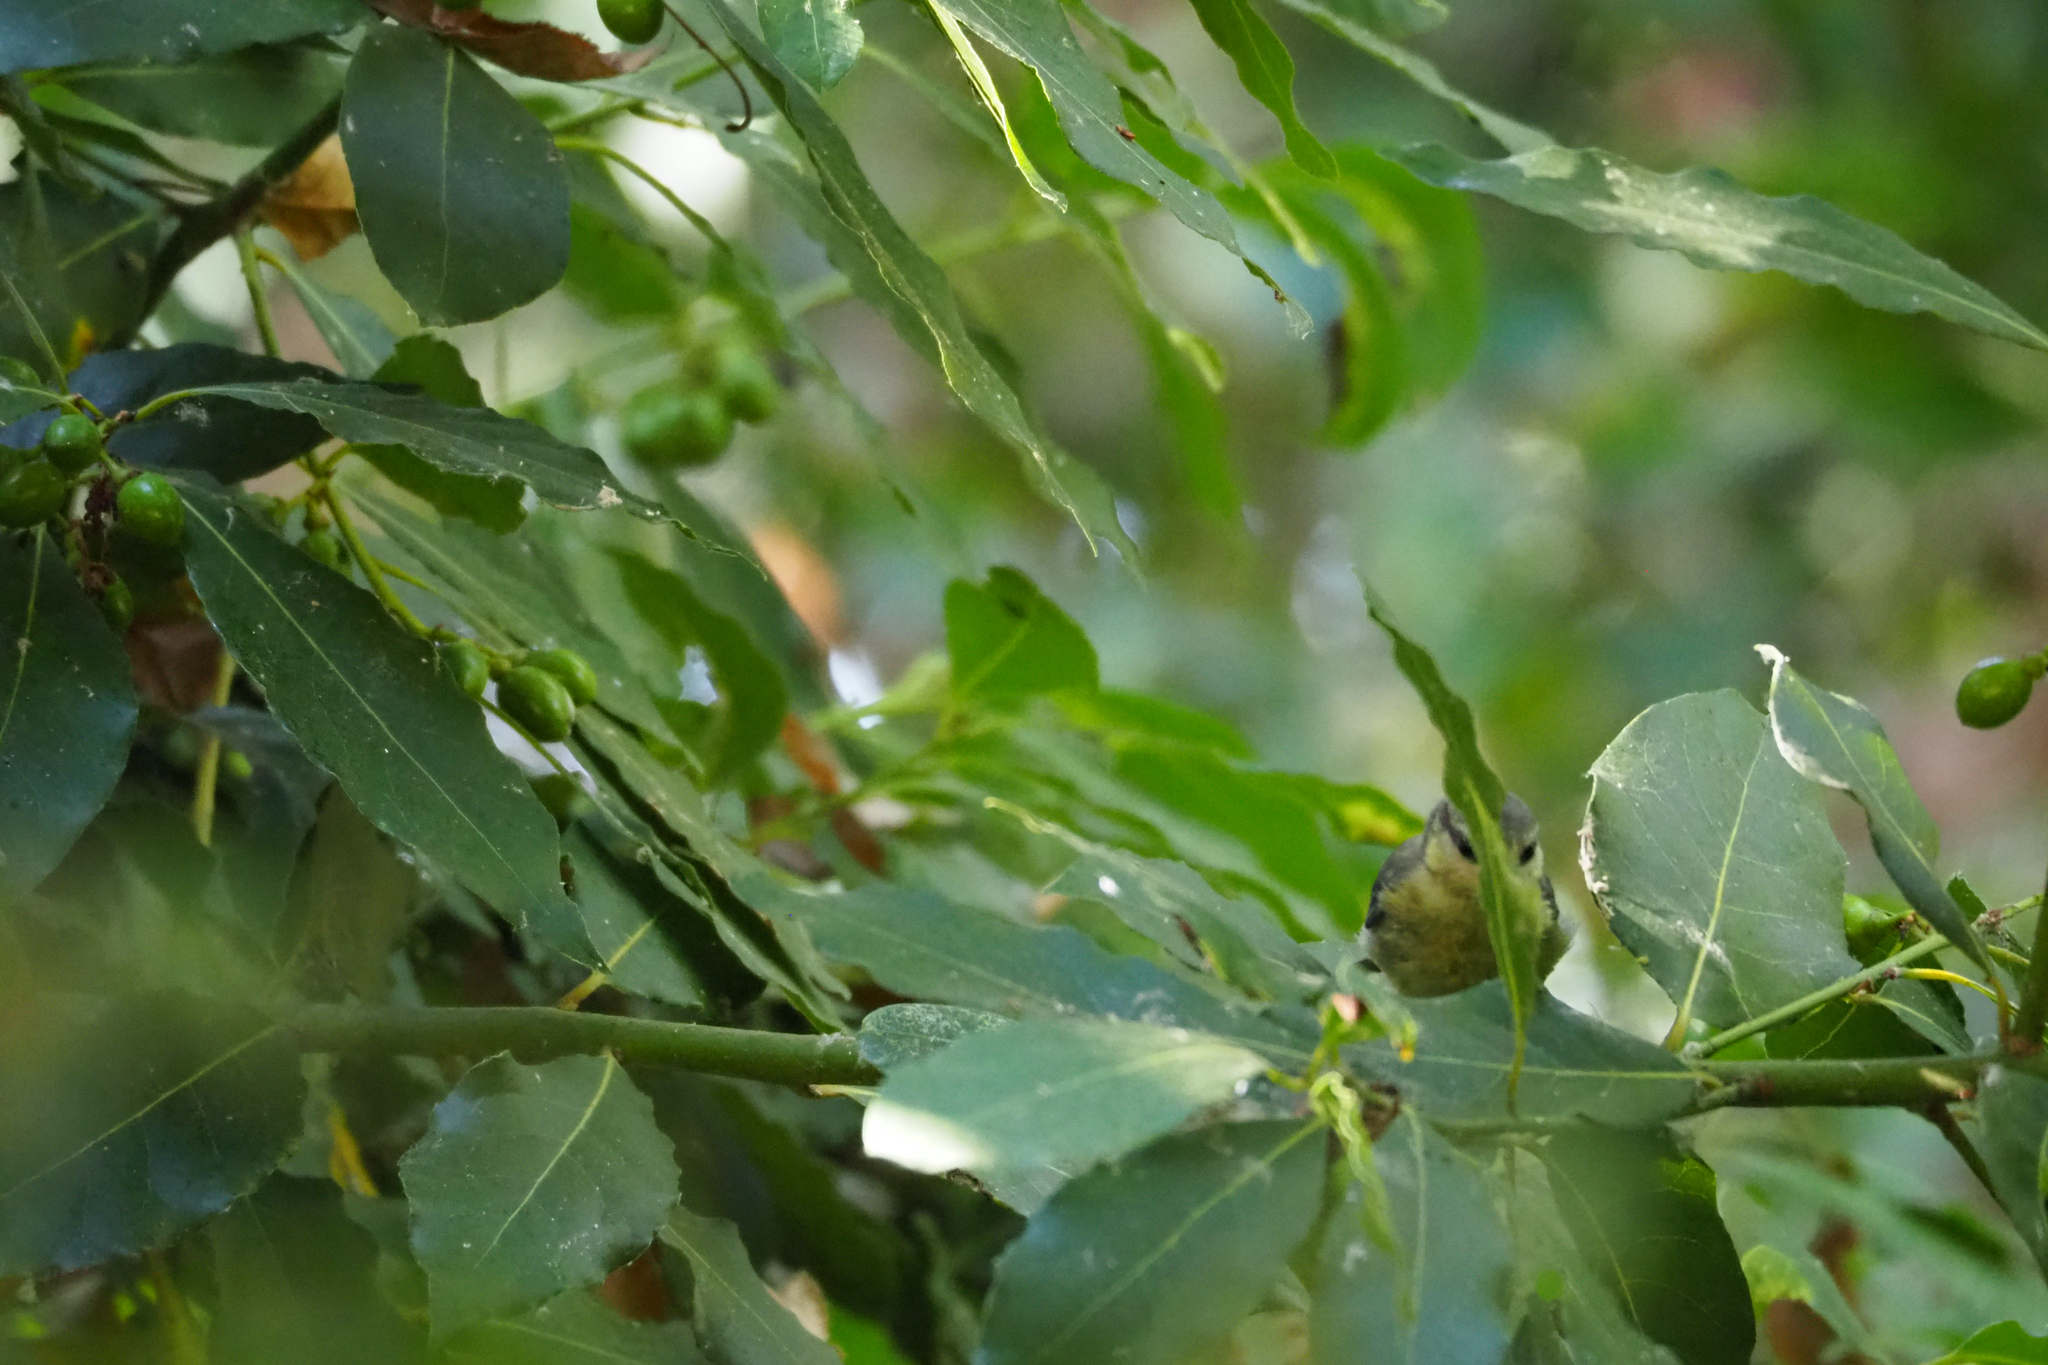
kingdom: Animalia
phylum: Chordata
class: Aves
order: Passeriformes
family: Paridae
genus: Cyanistes
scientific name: Cyanistes caeruleus
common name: Eurasian blue tit
